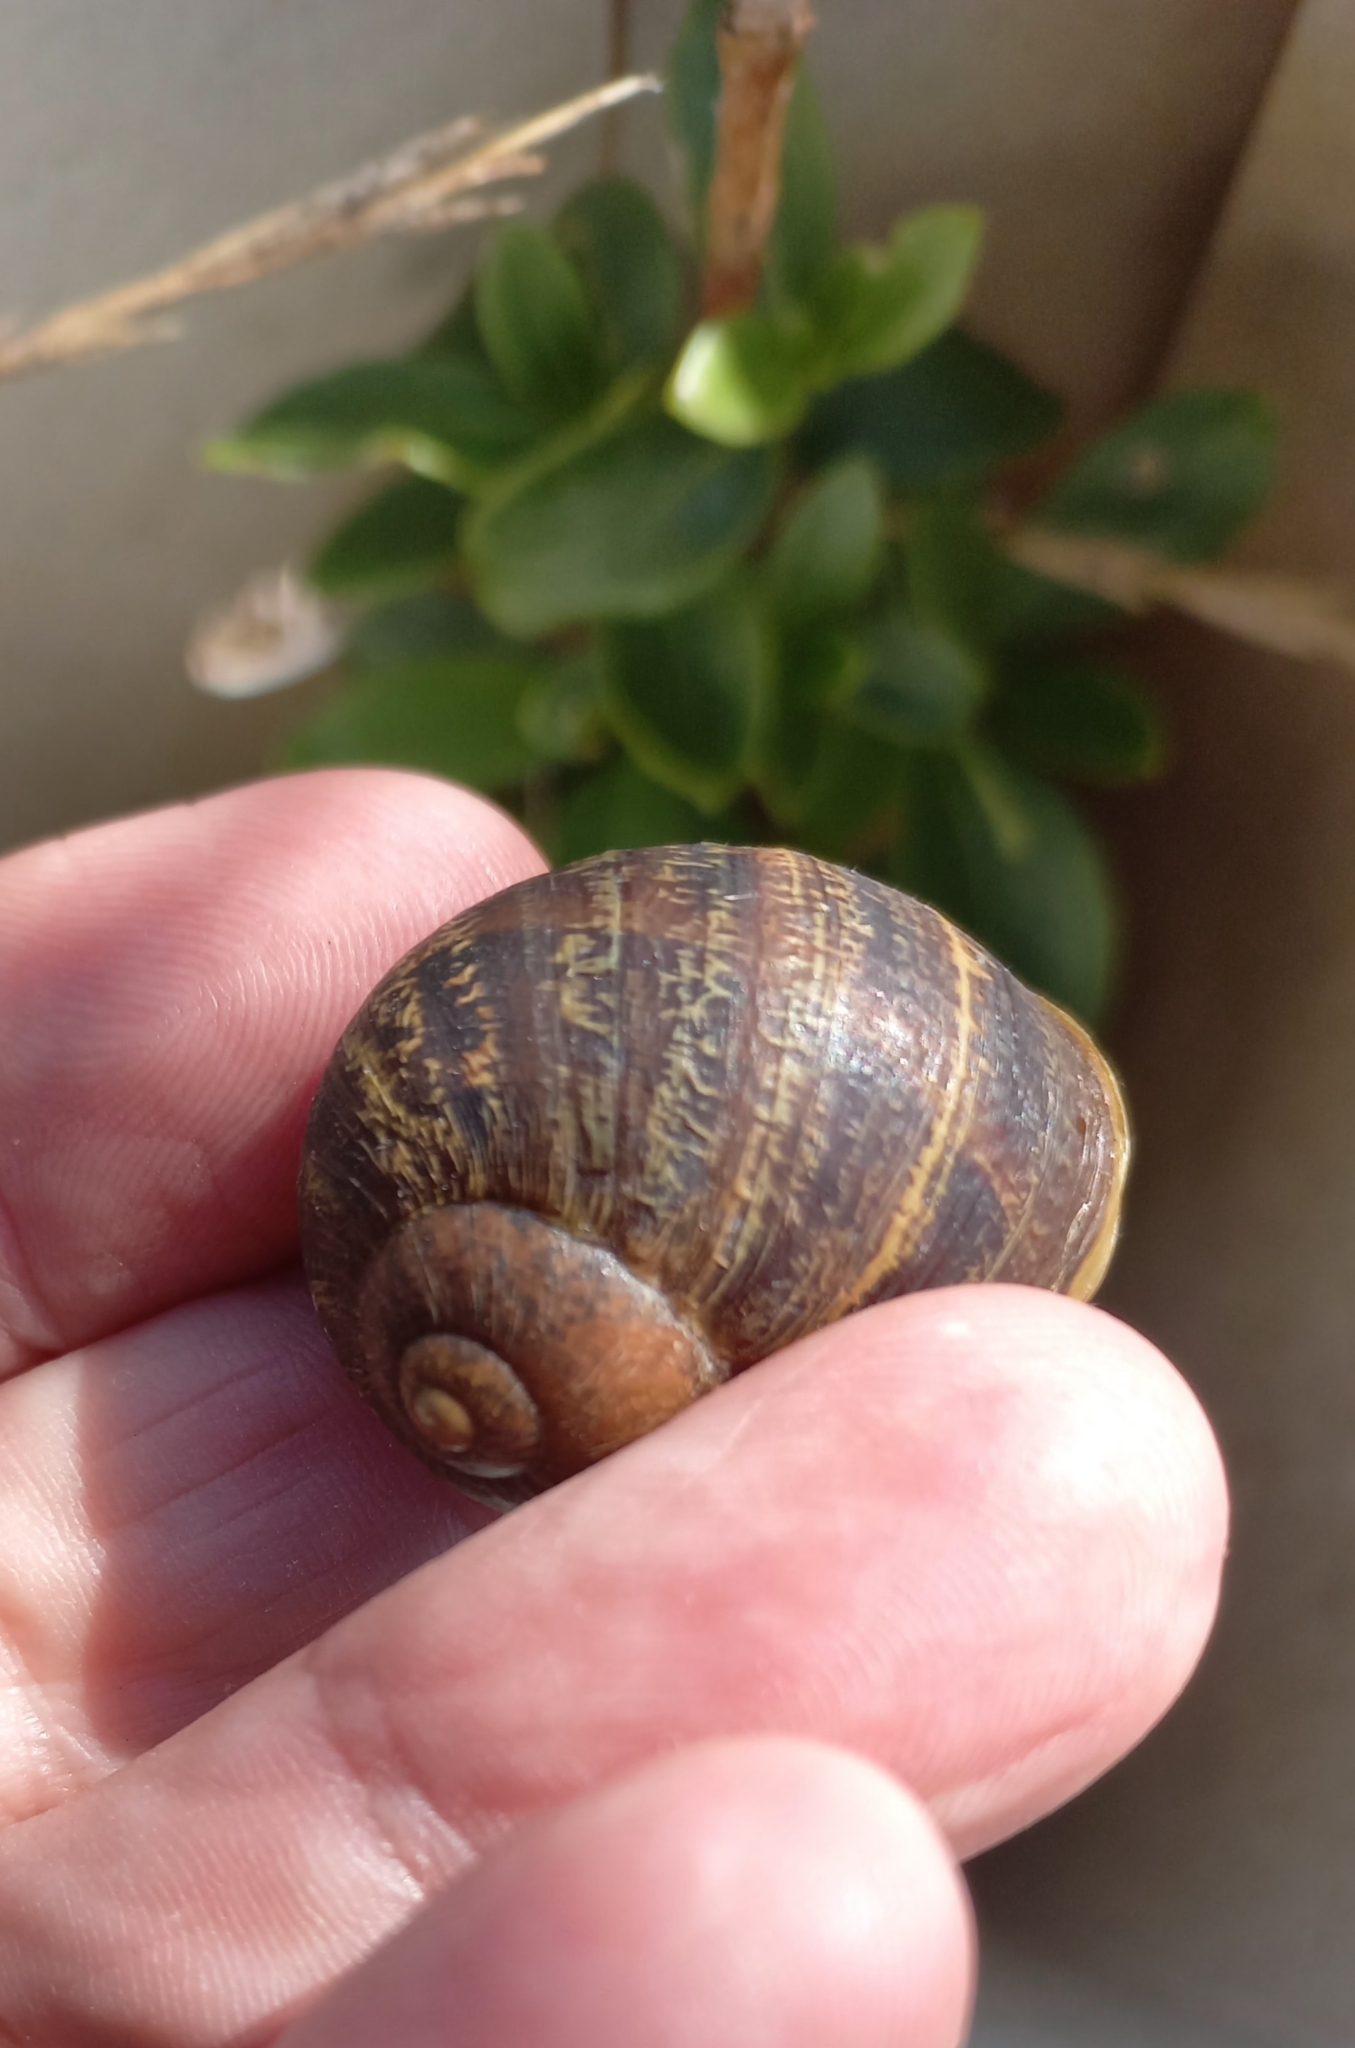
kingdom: Animalia
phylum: Mollusca
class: Gastropoda
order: Stylommatophora
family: Helicidae
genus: Cornu
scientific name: Cornu aspersum
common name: Brown garden snail
